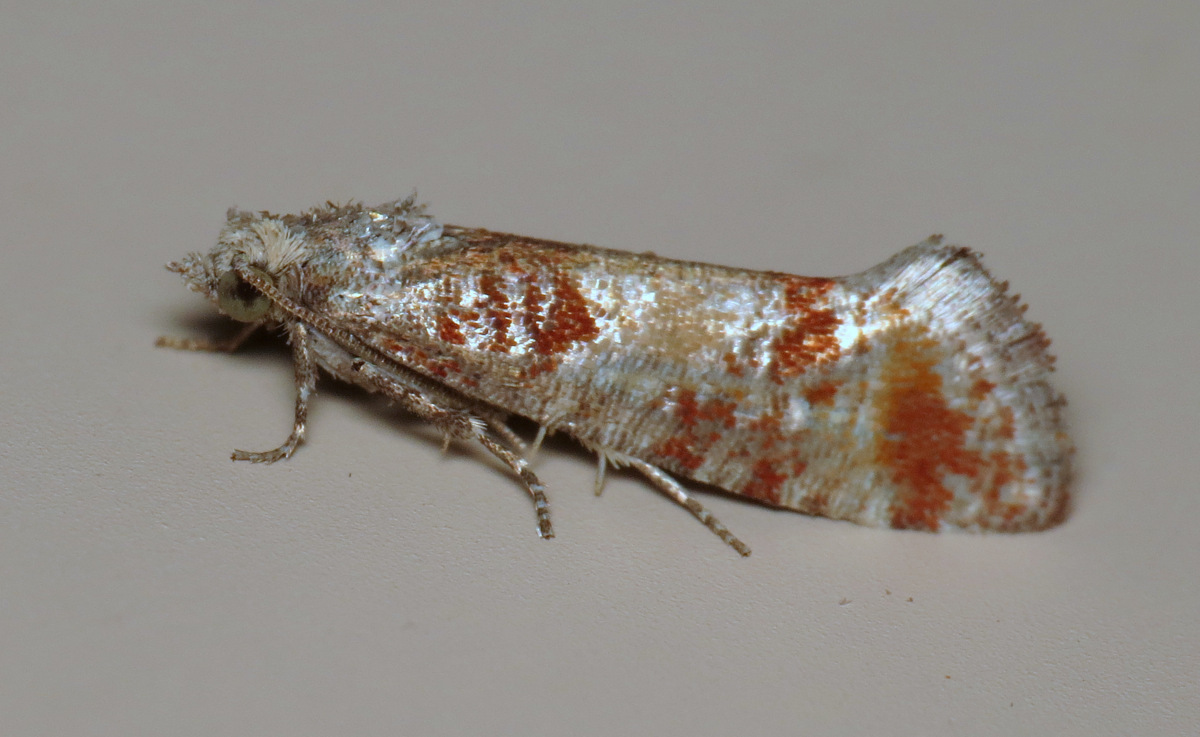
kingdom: Animalia
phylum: Arthropoda
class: Insecta
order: Lepidoptera
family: Tortricidae
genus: Rhyacionia
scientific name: Rhyacionia rigidana
